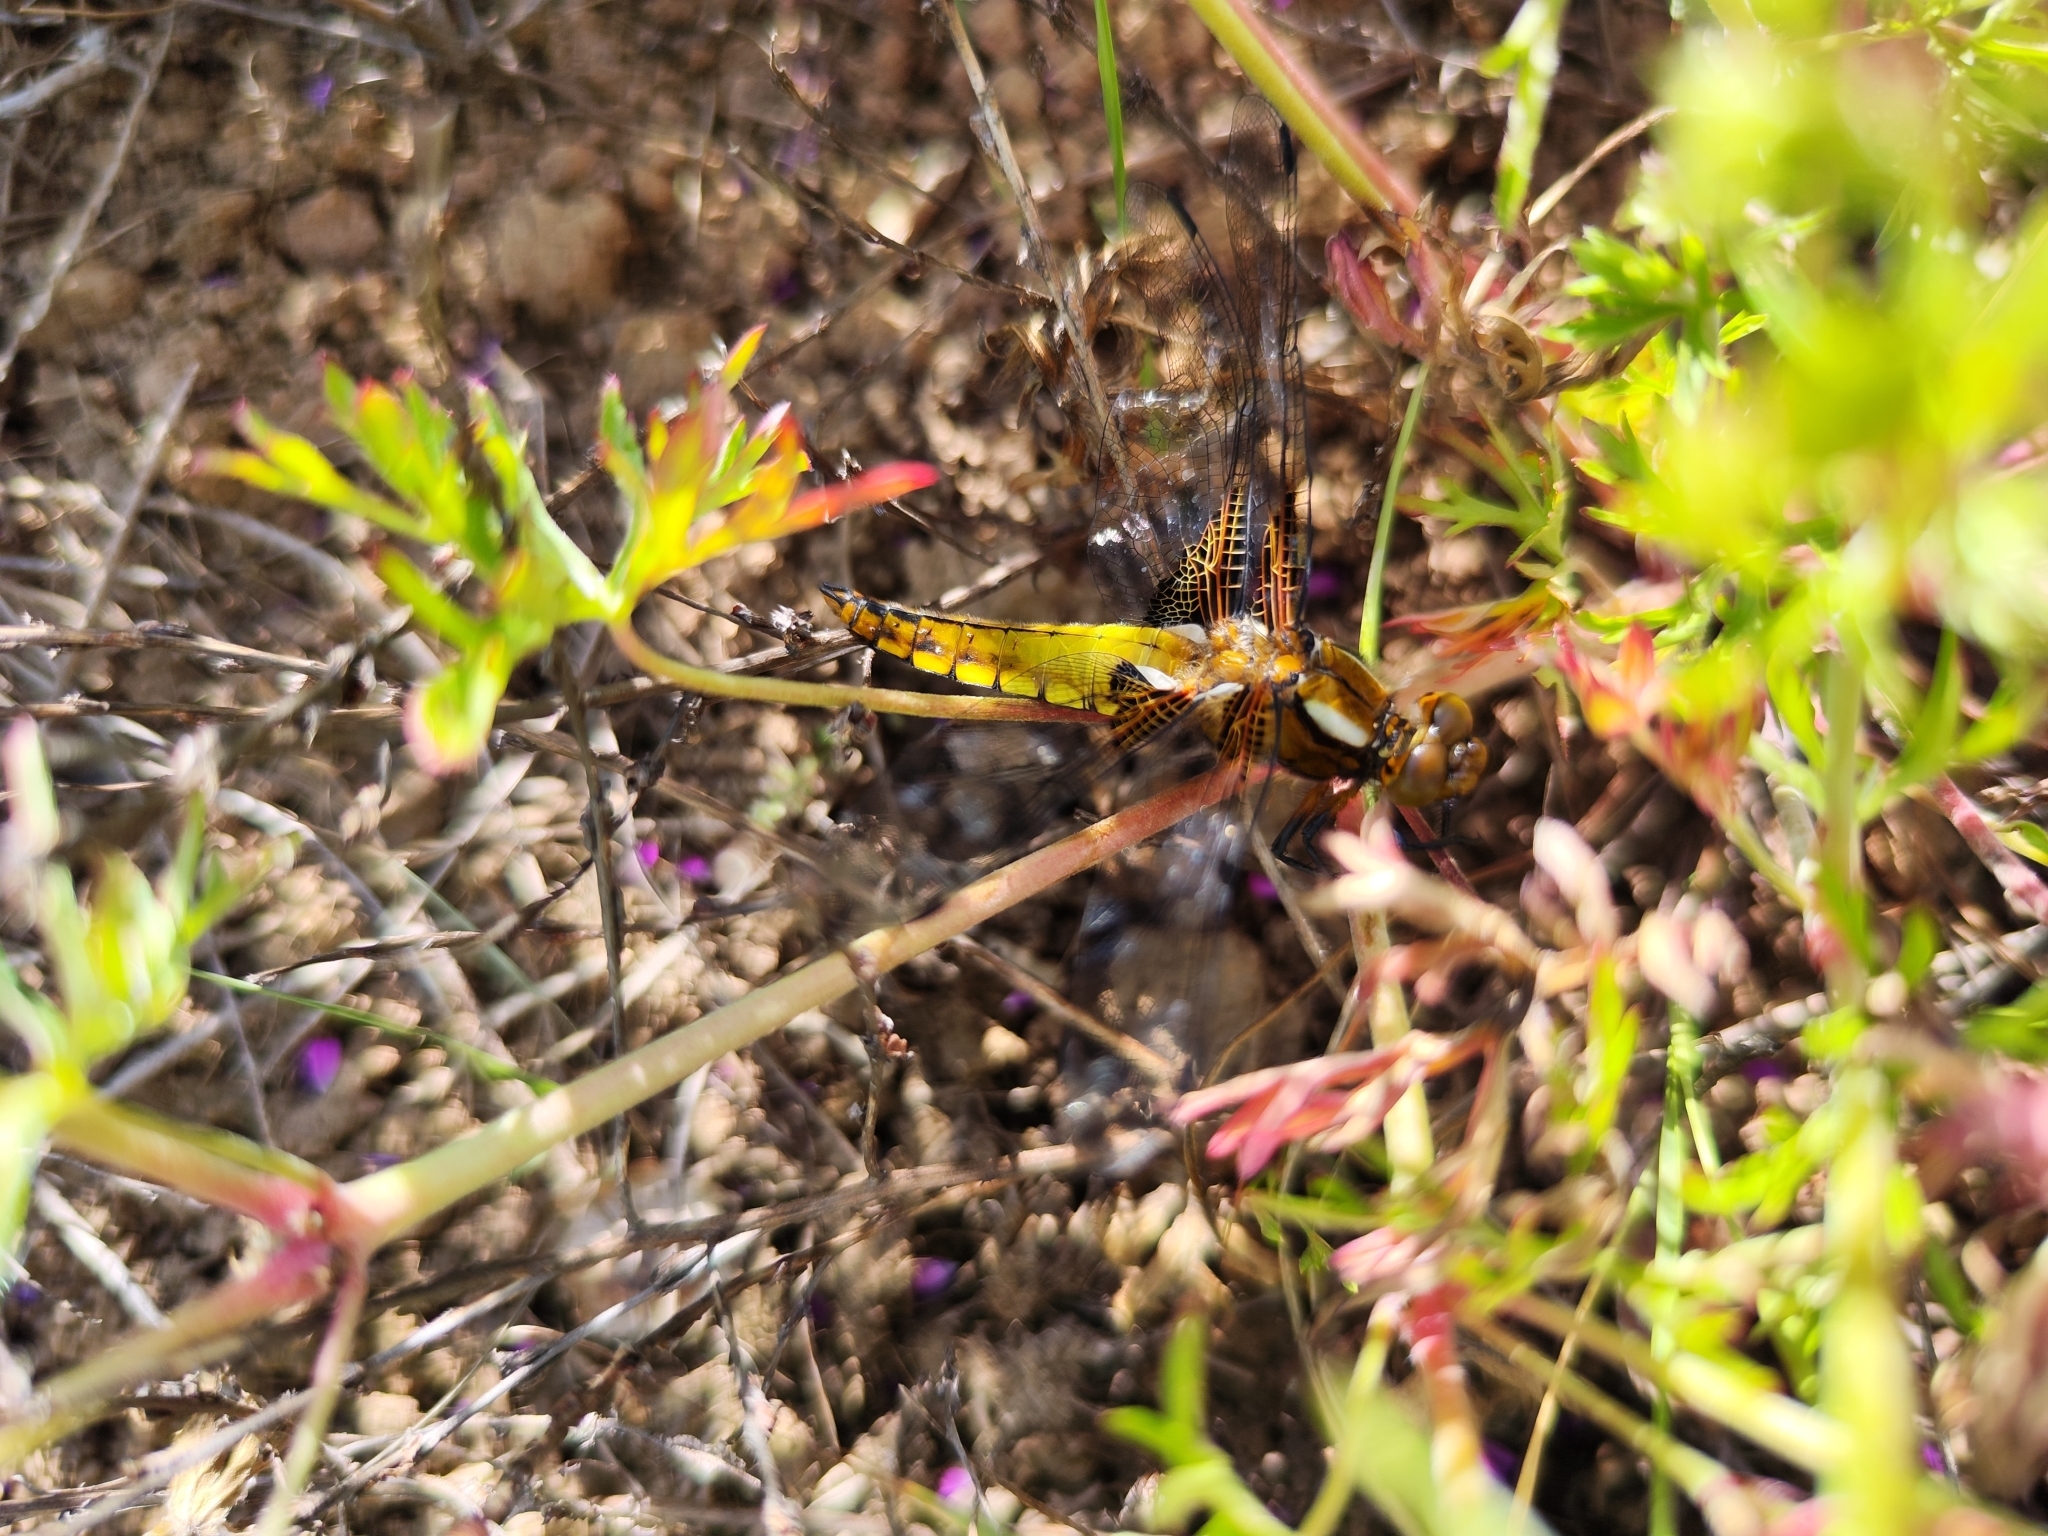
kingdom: Animalia
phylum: Arthropoda
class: Insecta
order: Odonata
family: Libellulidae
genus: Libellula
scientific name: Libellula depressa
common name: Broad-bodied chaser
